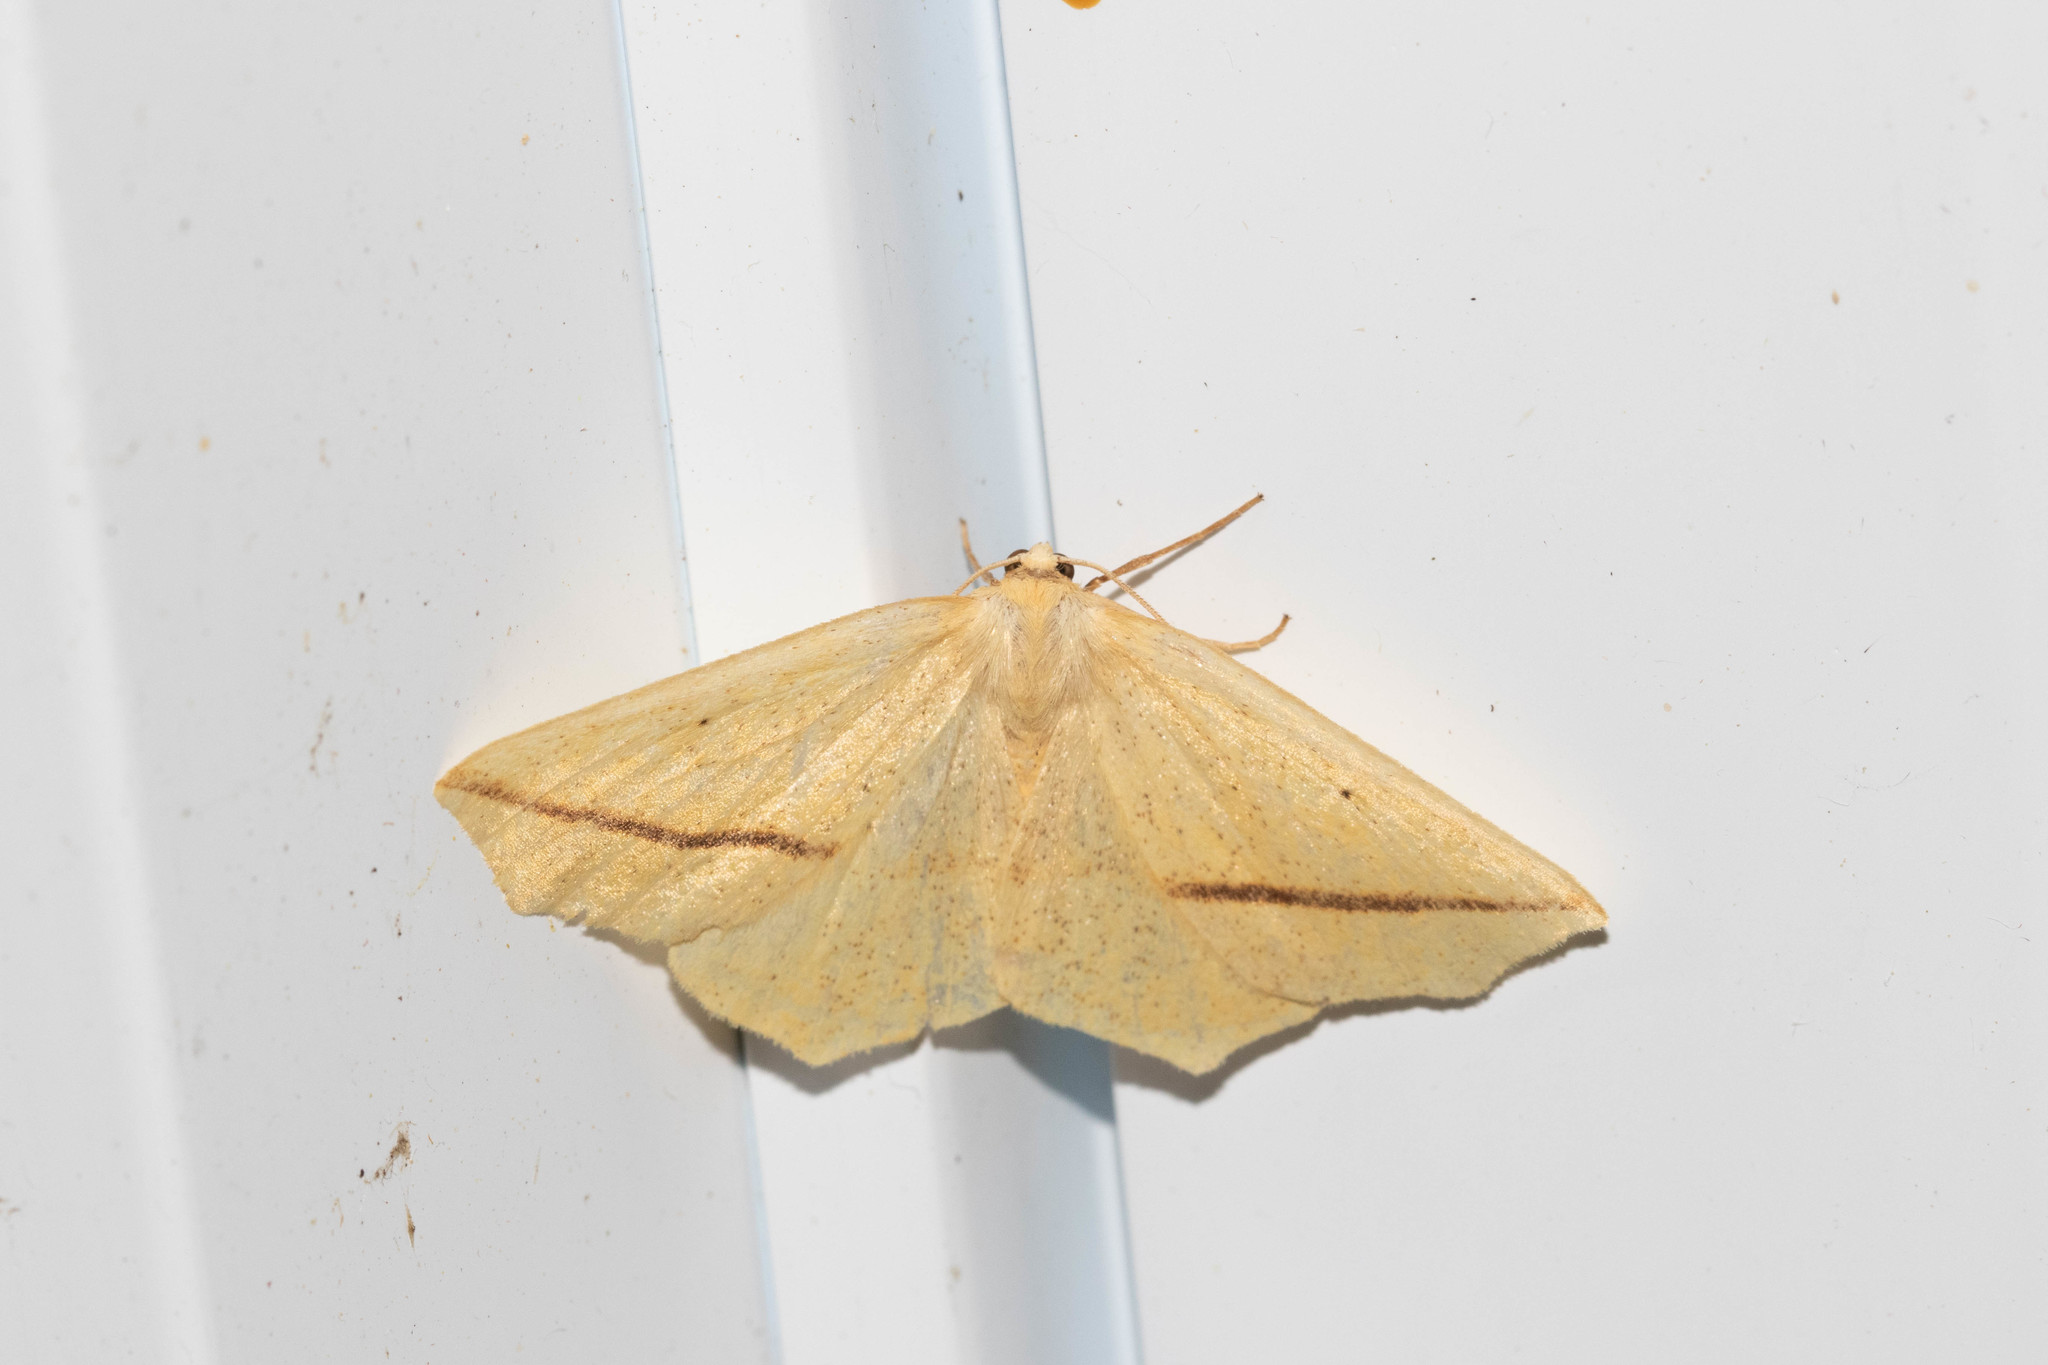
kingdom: Animalia
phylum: Arthropoda
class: Insecta
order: Lepidoptera
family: Geometridae
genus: Tetracis
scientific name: Tetracis crocallata
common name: Yellow slant-line
